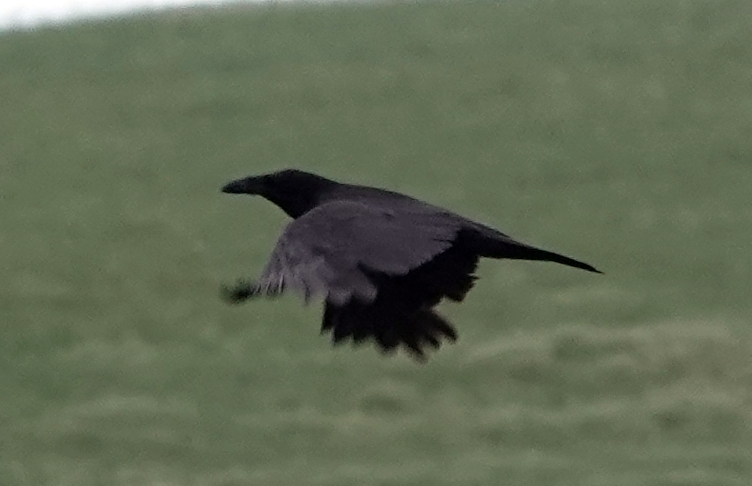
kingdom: Animalia
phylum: Chordata
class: Aves
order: Passeriformes
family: Corvidae
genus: Corvus
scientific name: Corvus corax
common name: Common raven
